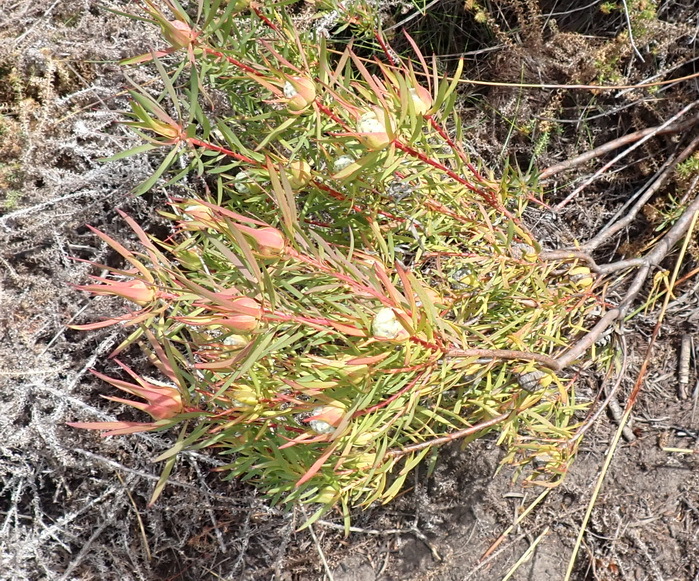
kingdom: Plantae
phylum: Tracheophyta
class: Magnoliopsida
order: Proteales
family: Proteaceae
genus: Leucadendron
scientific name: Leucadendron salignum
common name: Common sunshine conebush
